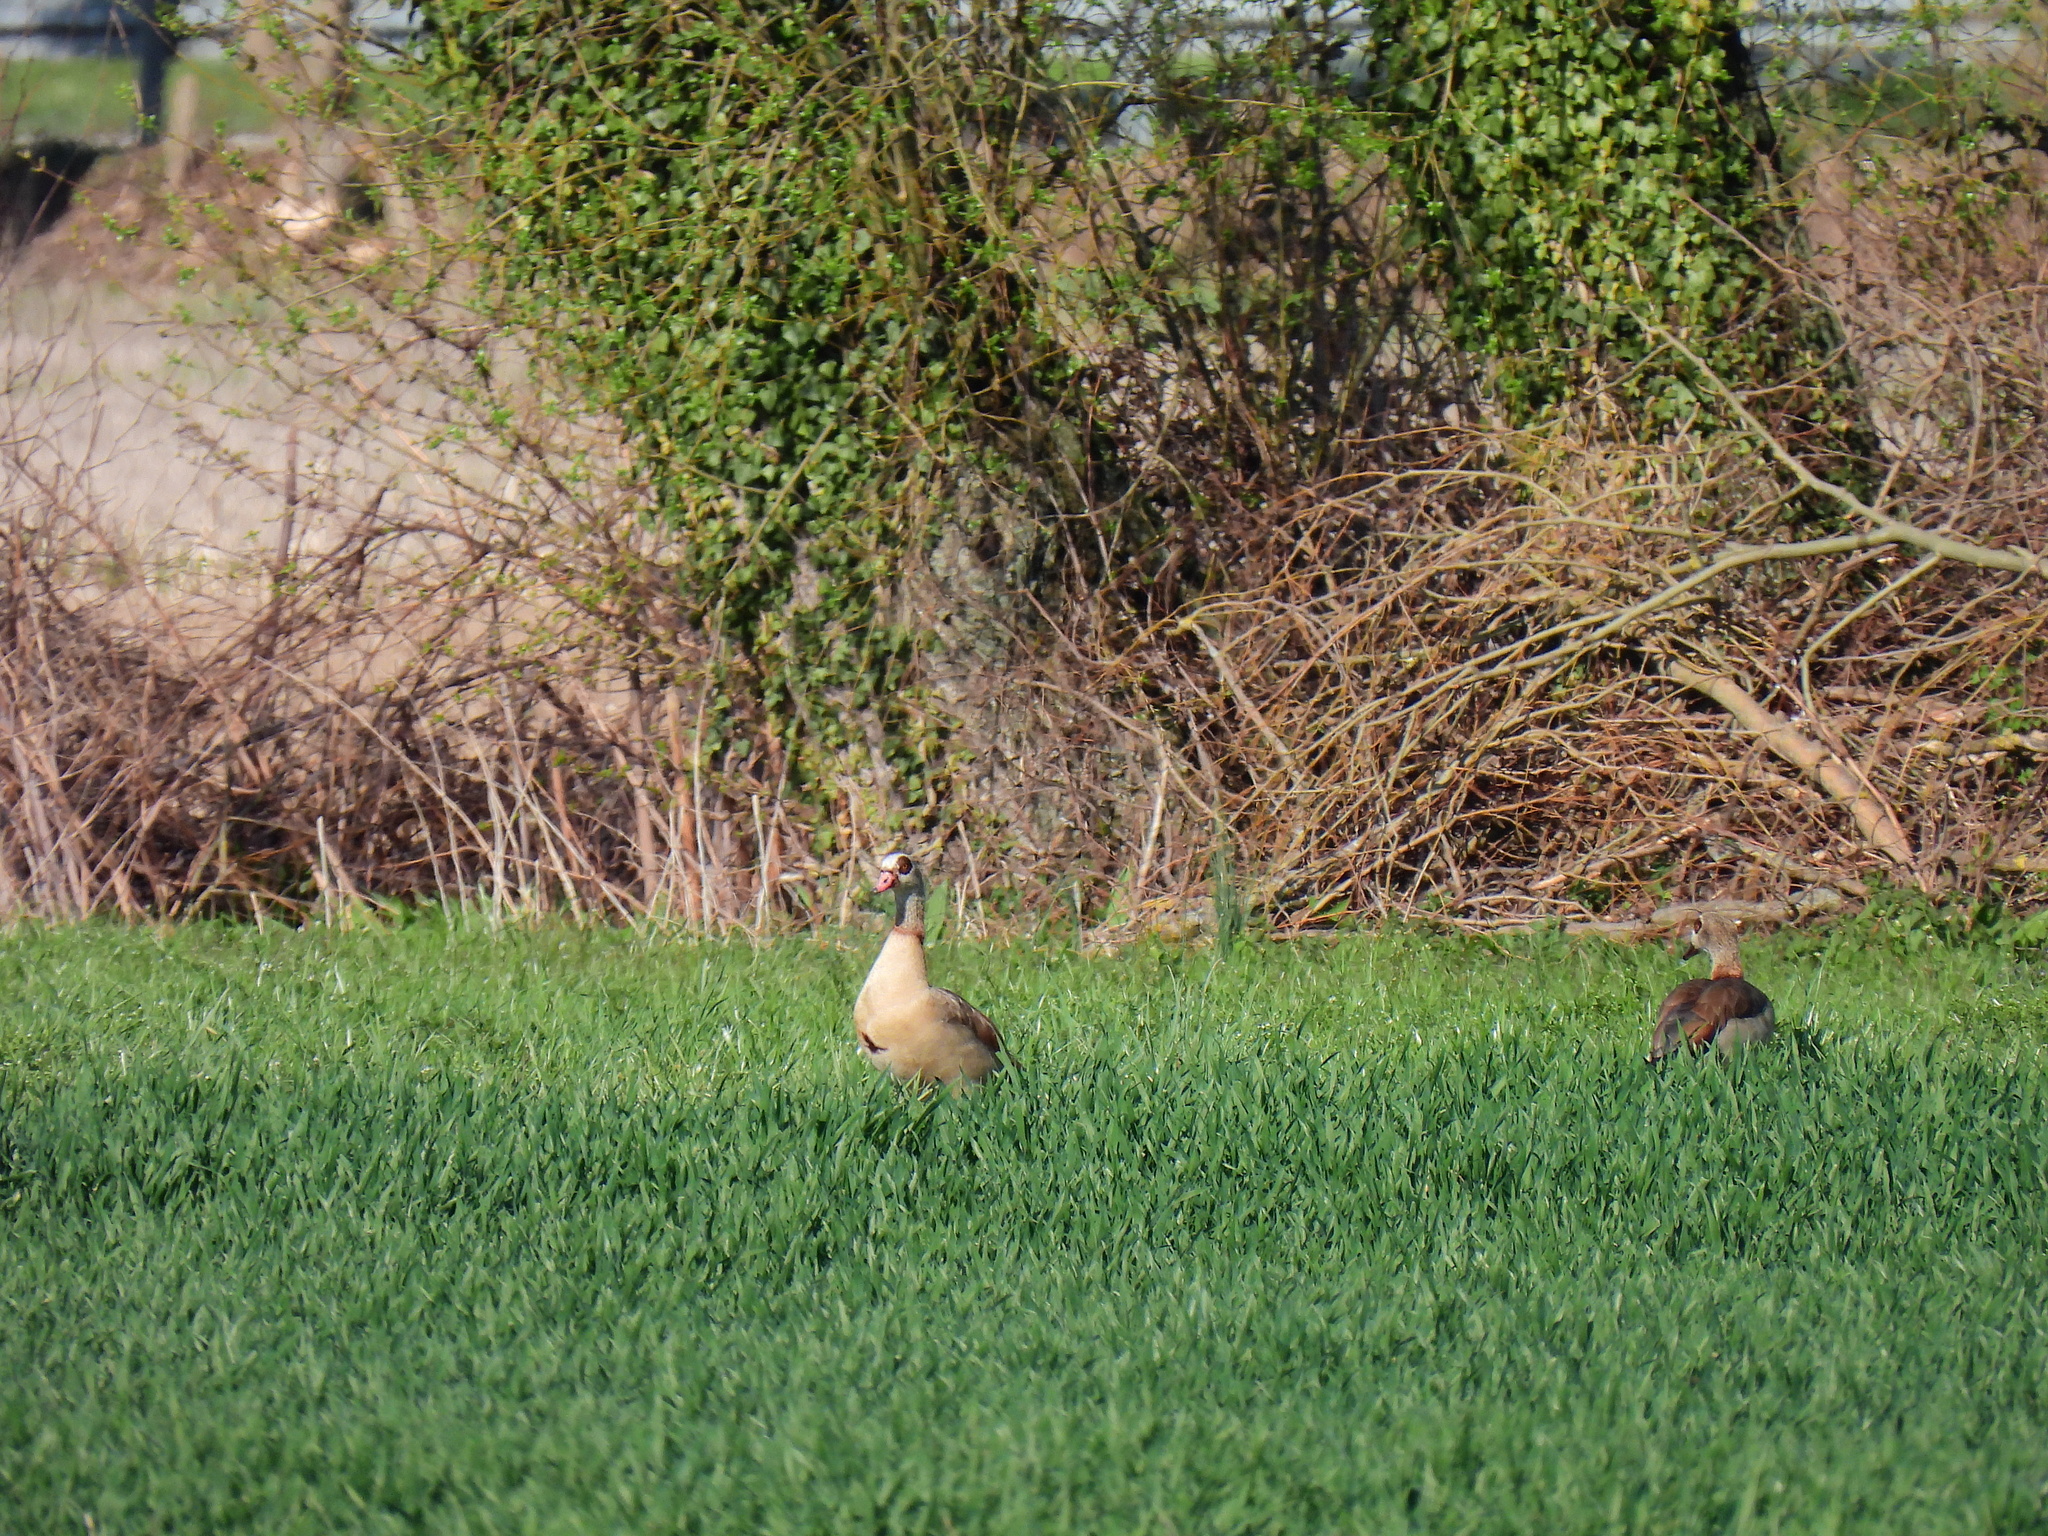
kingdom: Animalia
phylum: Chordata
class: Aves
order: Anseriformes
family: Anatidae
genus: Alopochen
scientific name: Alopochen aegyptiaca
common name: Egyptian goose
